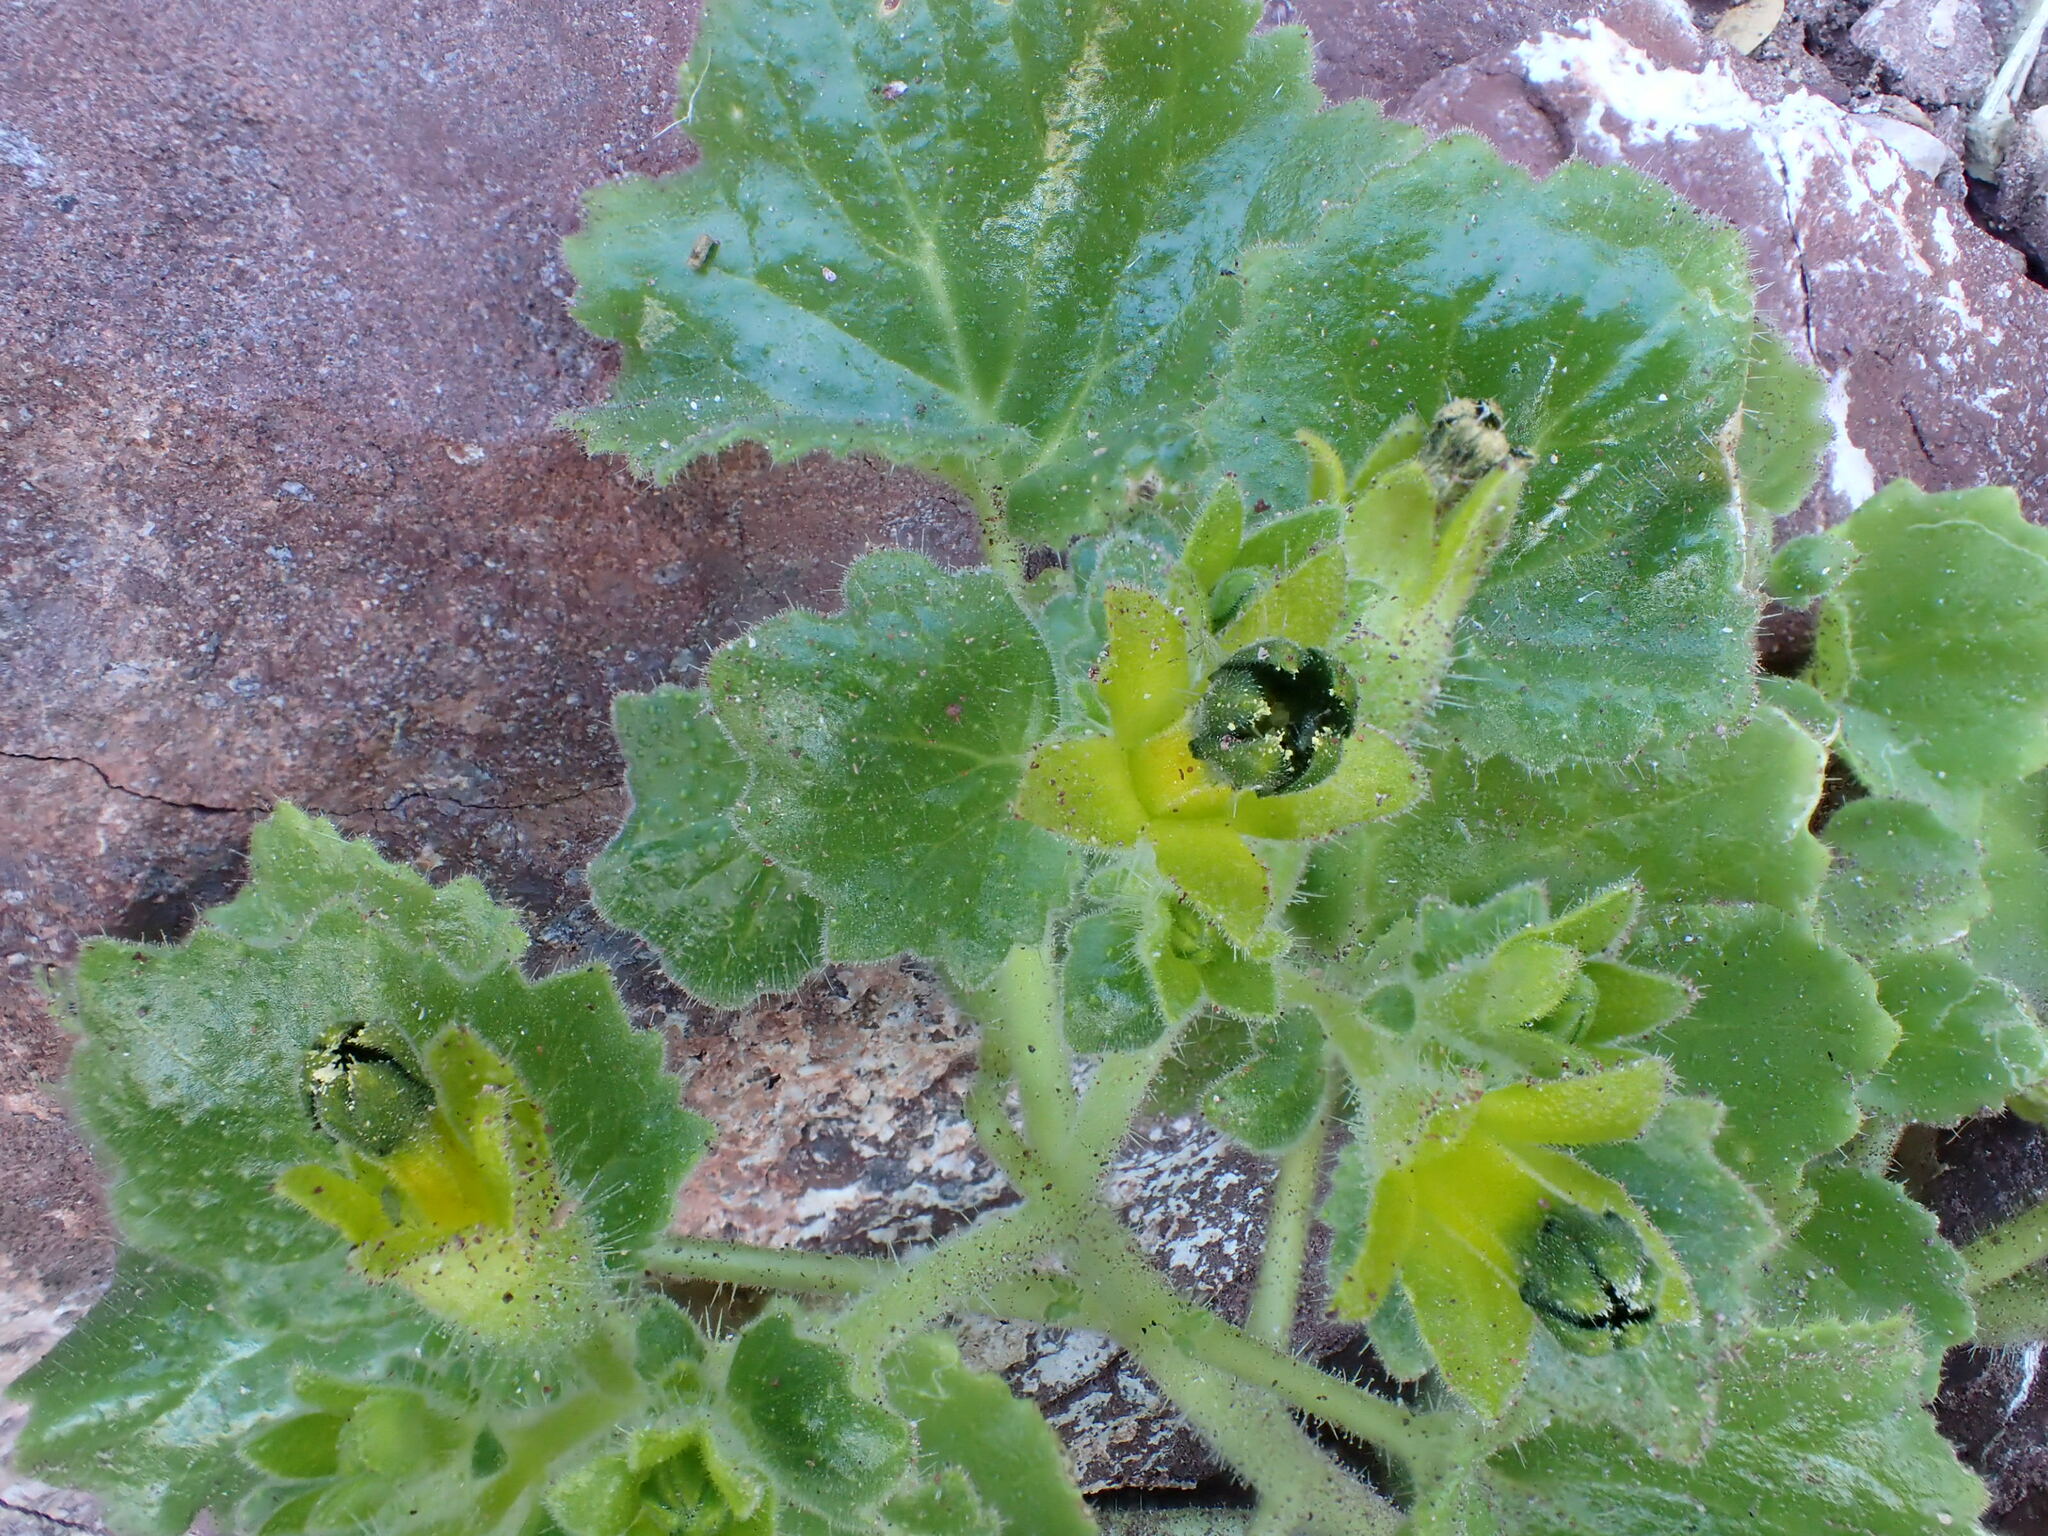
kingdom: Plantae
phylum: Tracheophyta
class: Magnoliopsida
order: Cornales
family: Loasaceae
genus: Eucnide
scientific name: Eucnide rupestris
